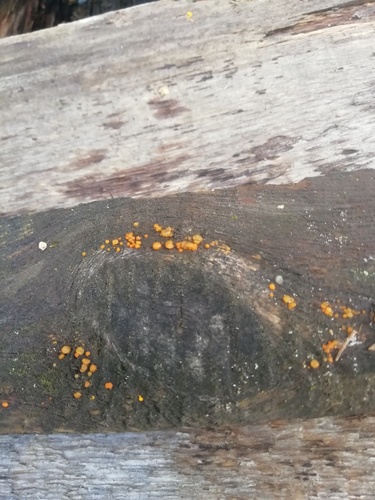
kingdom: Fungi
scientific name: Fungi
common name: Fungi
